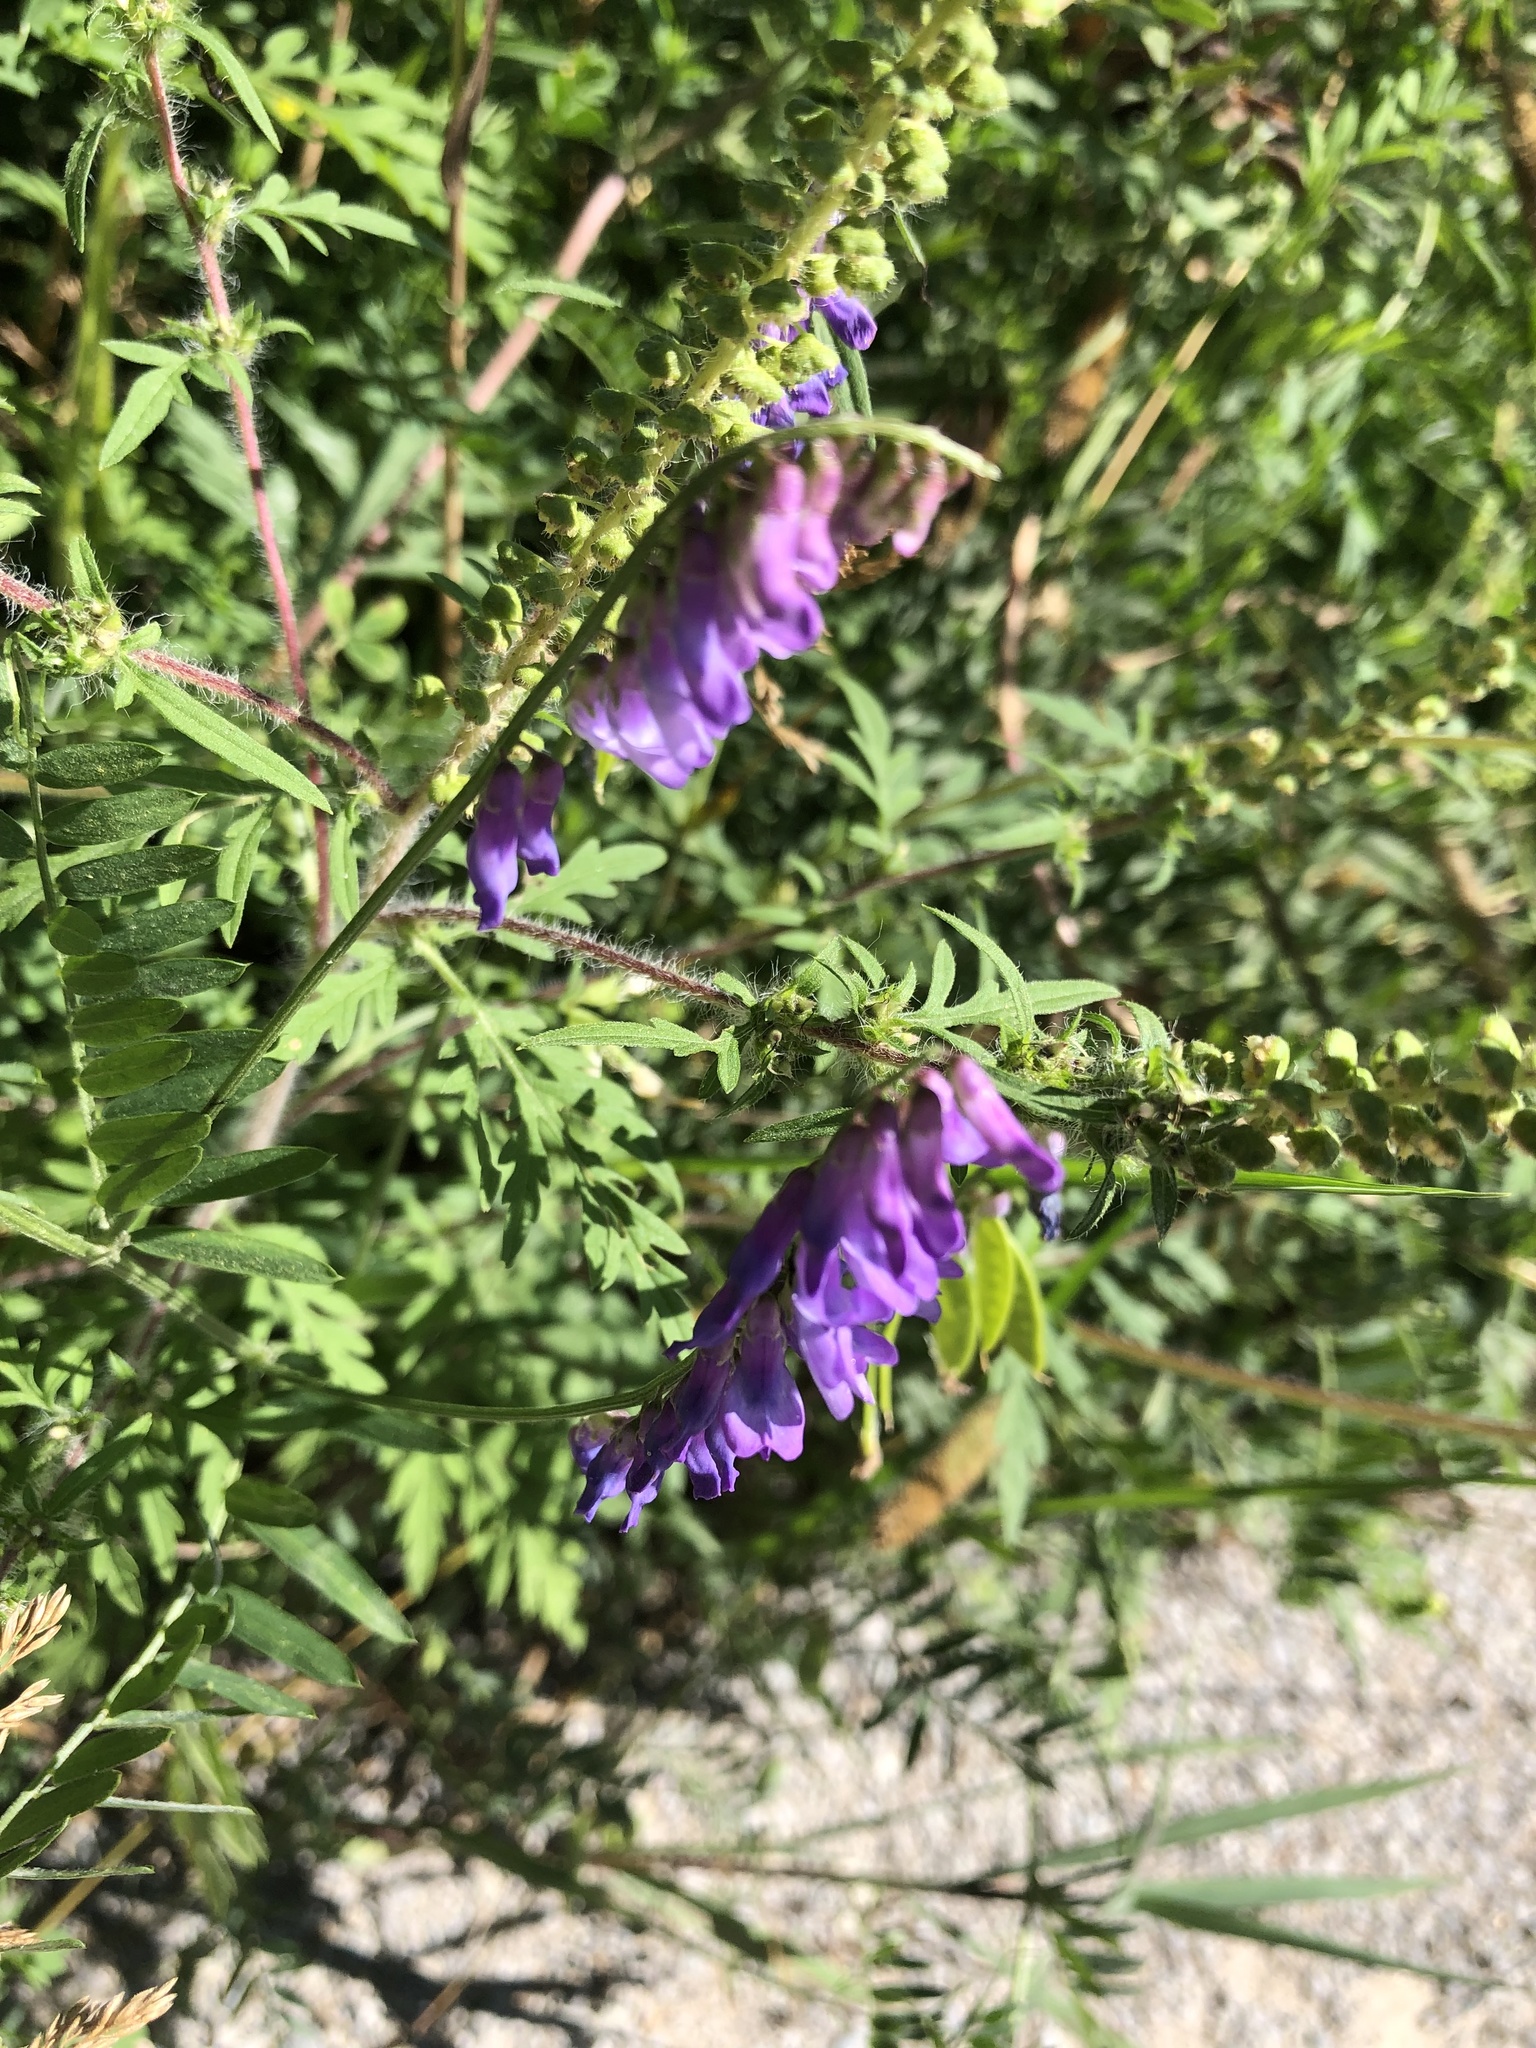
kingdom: Plantae
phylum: Tracheophyta
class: Magnoliopsida
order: Fabales
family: Fabaceae
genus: Vicia
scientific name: Vicia cracca
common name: Bird vetch
